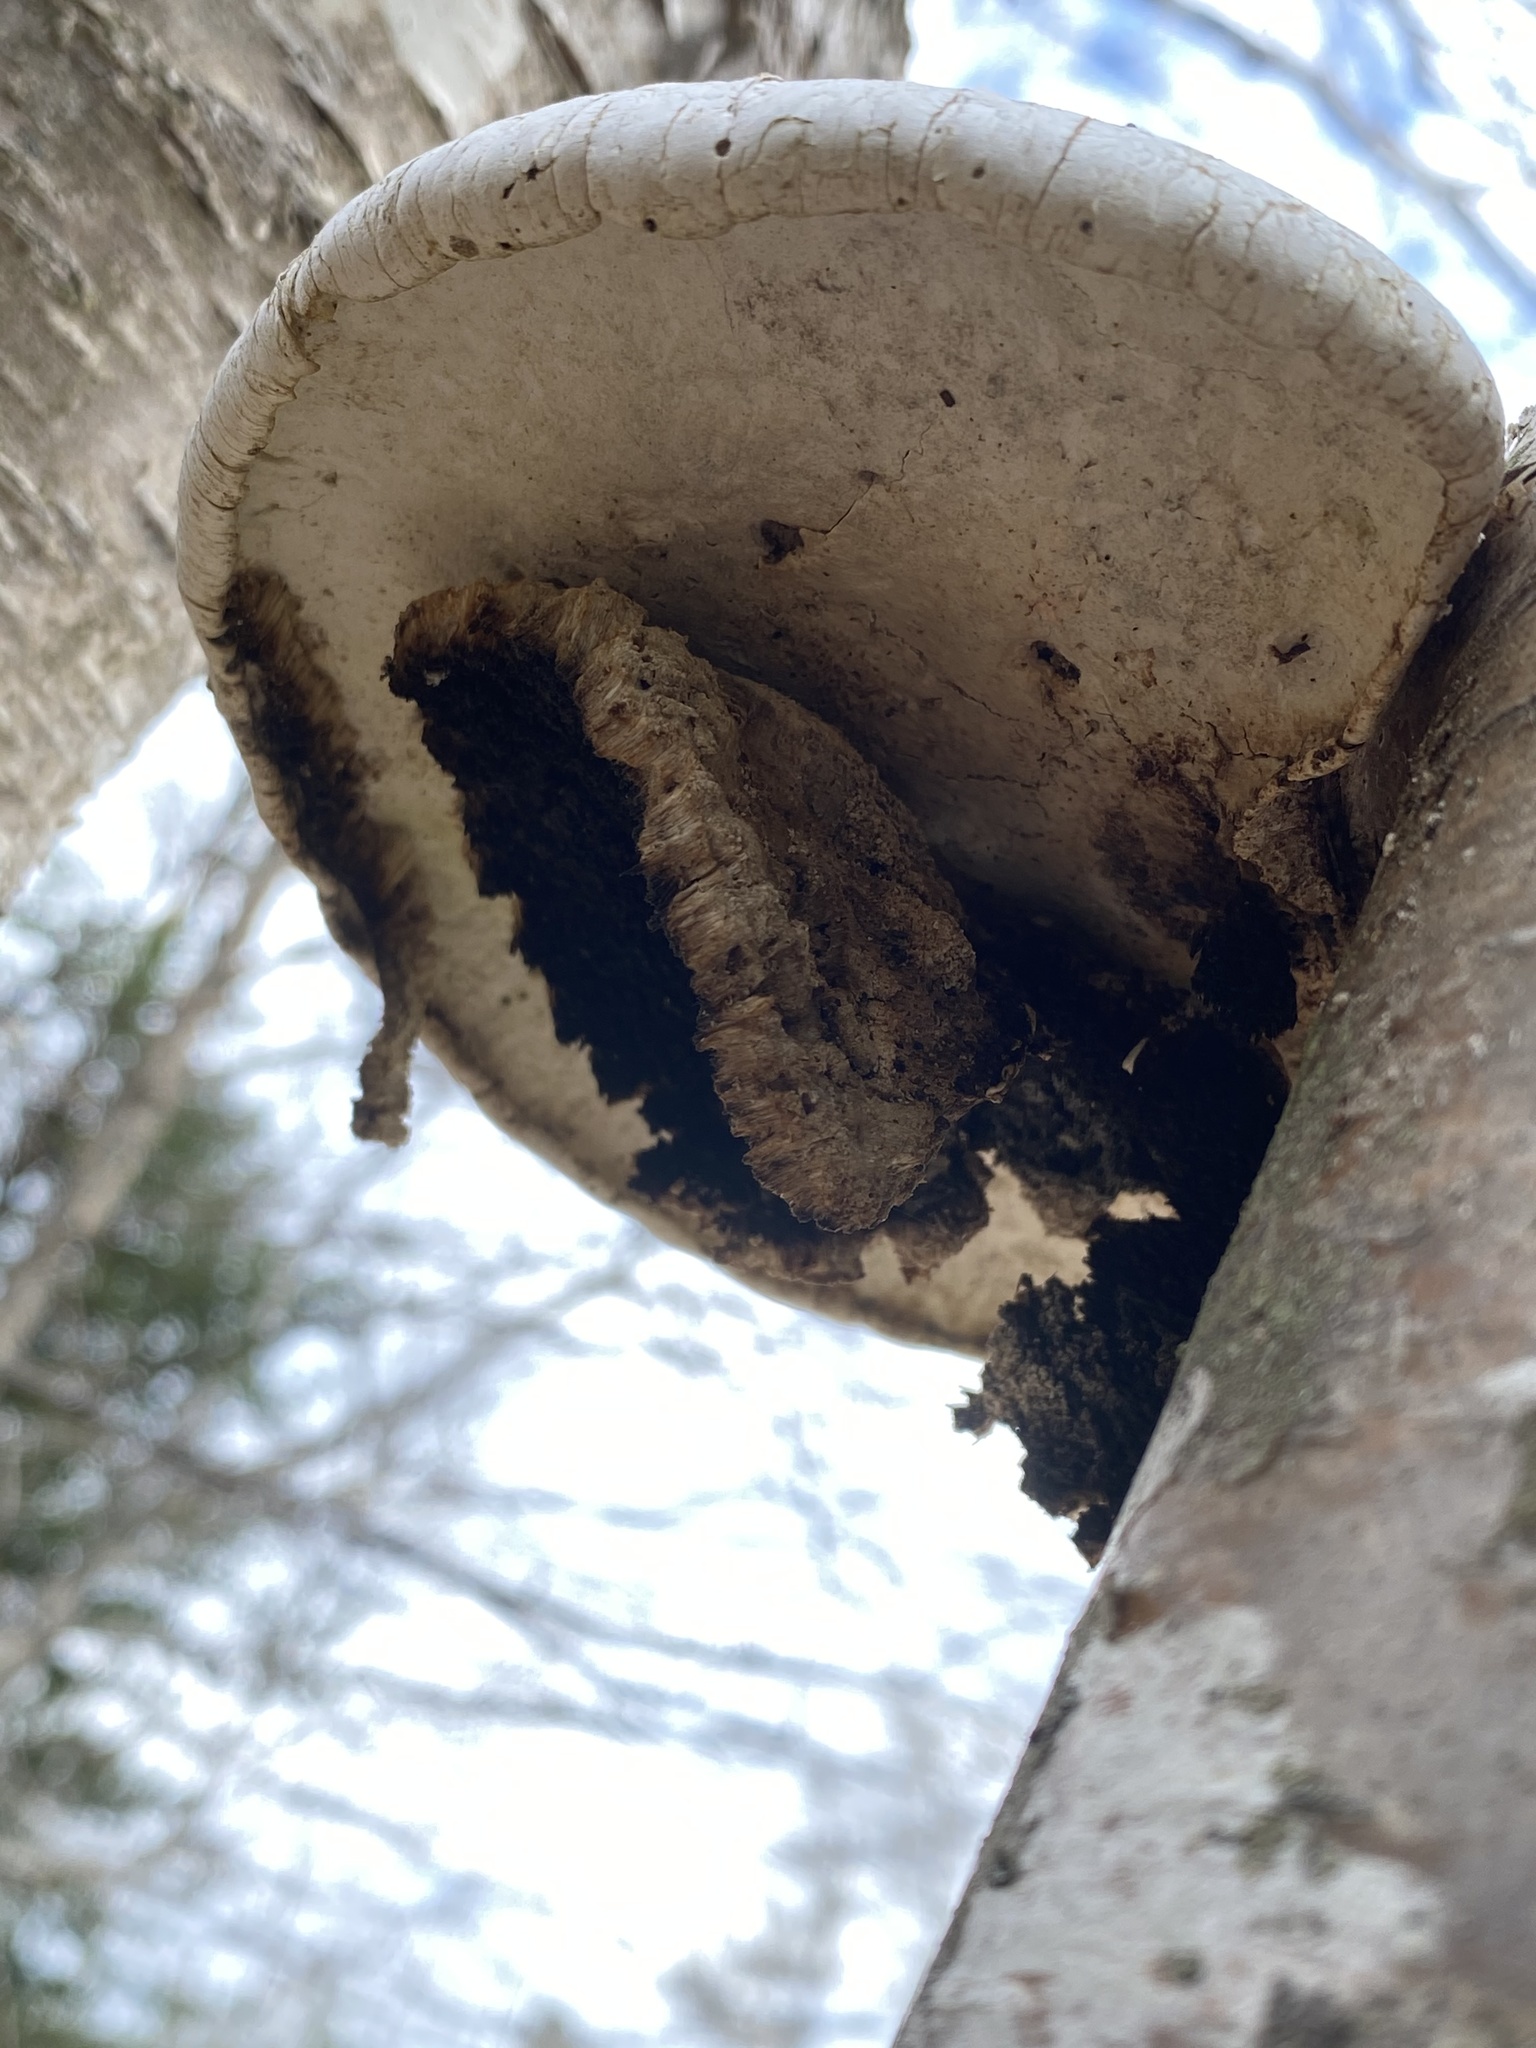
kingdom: Fungi
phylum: Basidiomycota
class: Agaricomycetes
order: Polyporales
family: Fomitopsidaceae
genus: Fomitopsis
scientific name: Fomitopsis betulina
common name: Birch polypore
